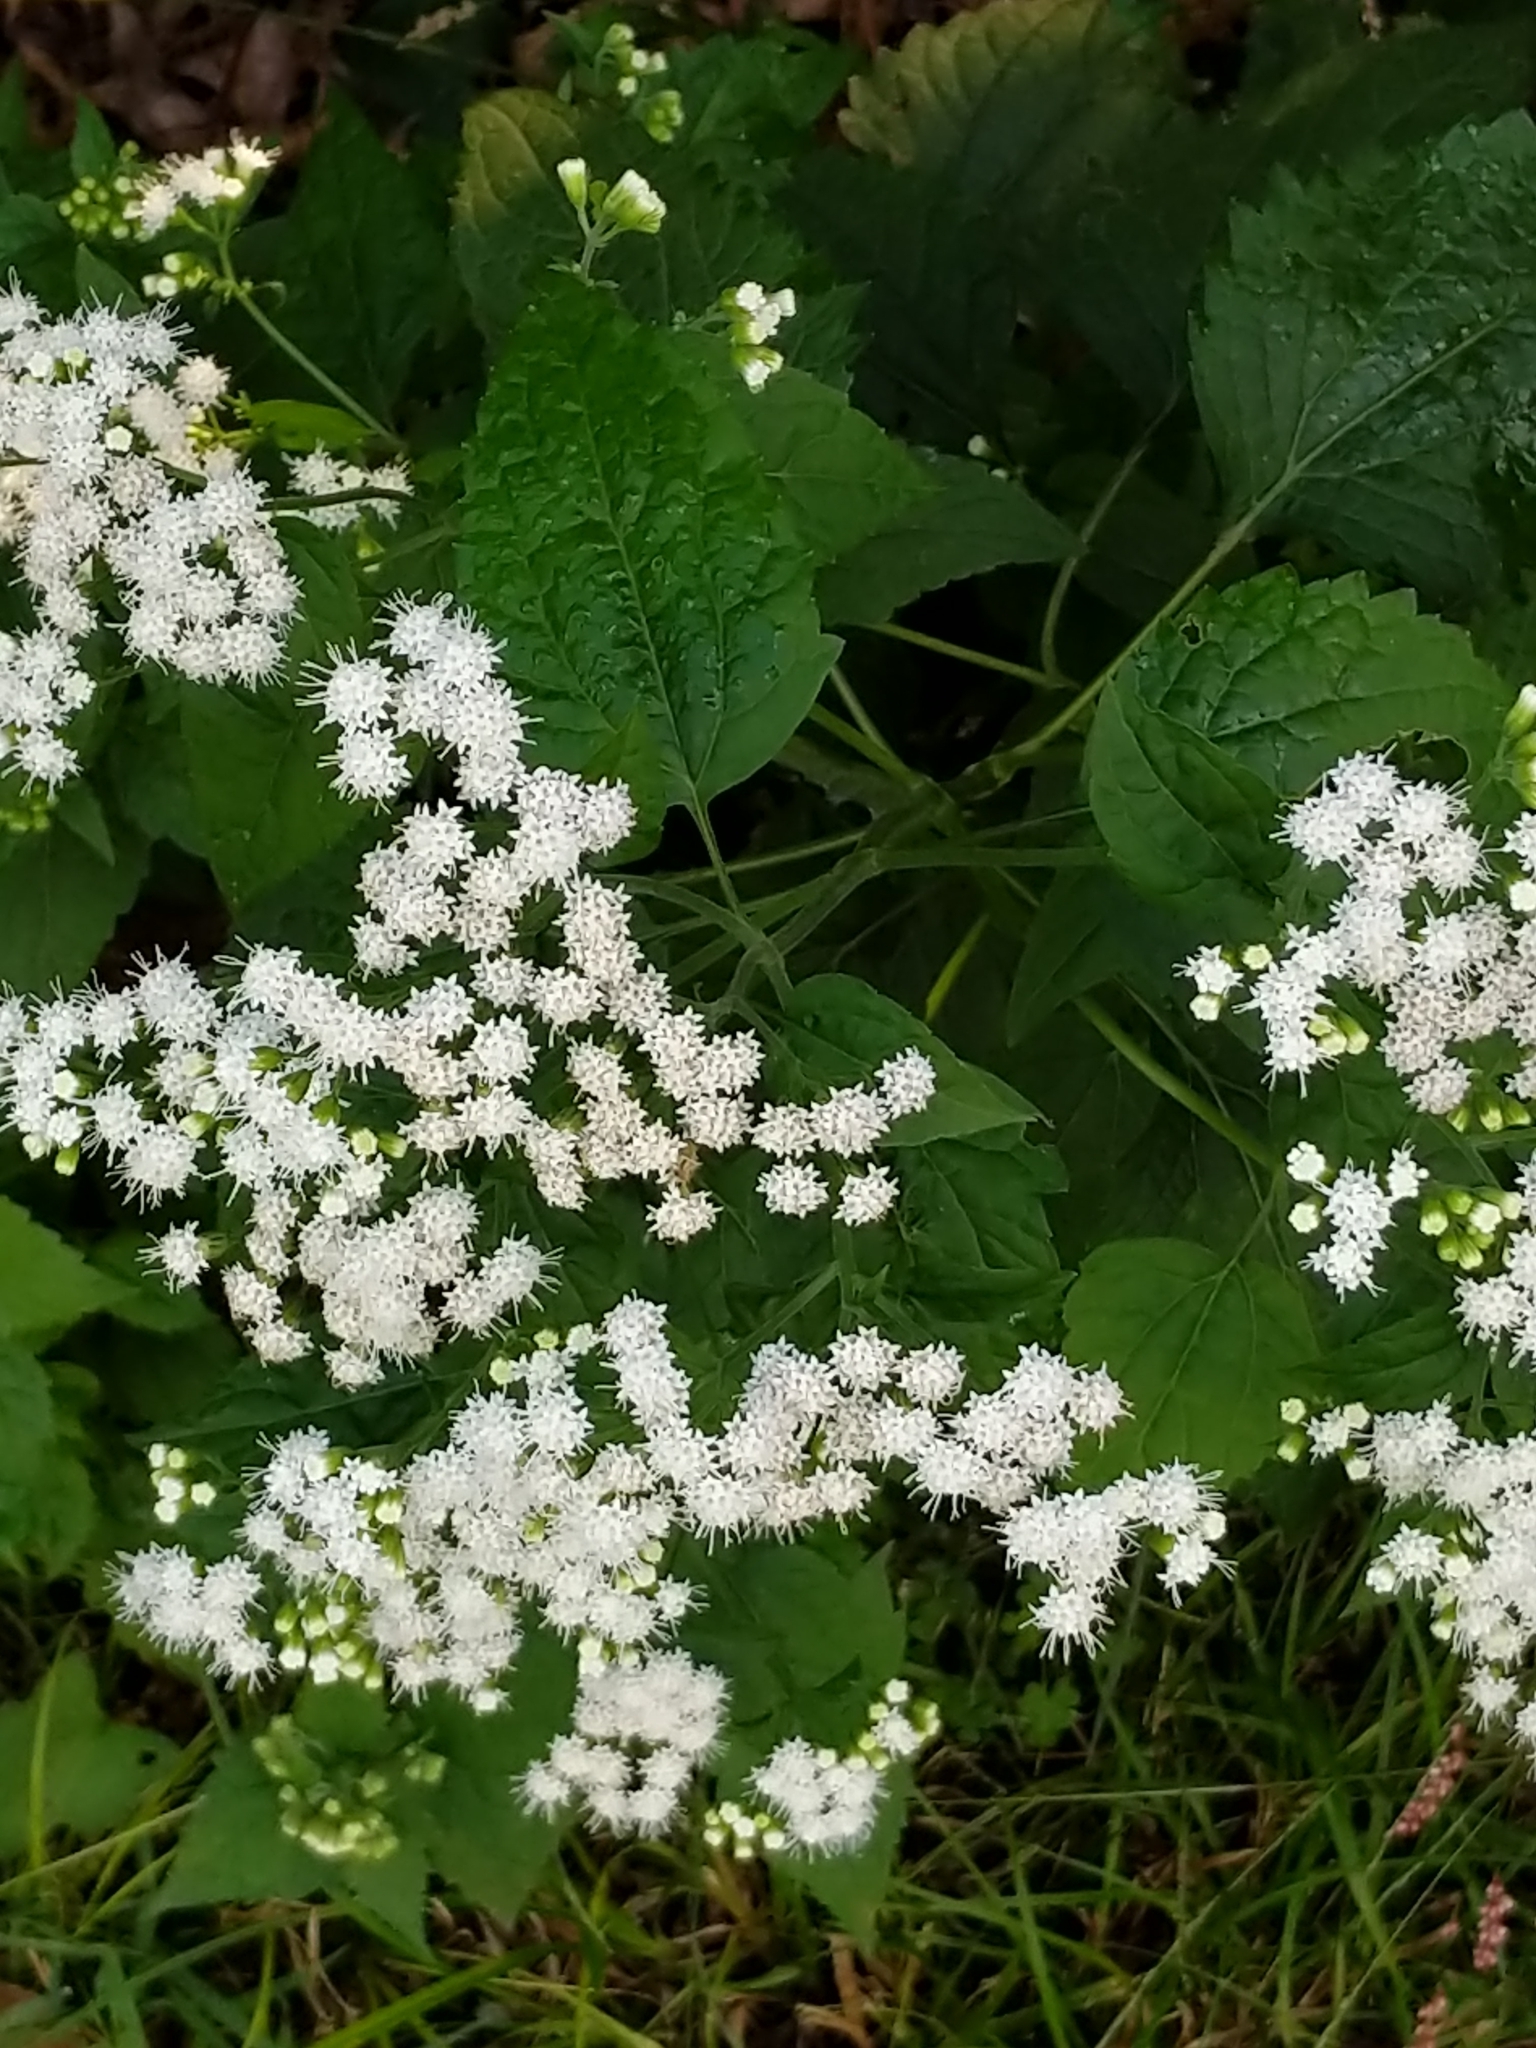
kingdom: Plantae
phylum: Tracheophyta
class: Magnoliopsida
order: Asterales
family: Asteraceae
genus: Ageratina
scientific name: Ageratina altissima
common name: White snakeroot
